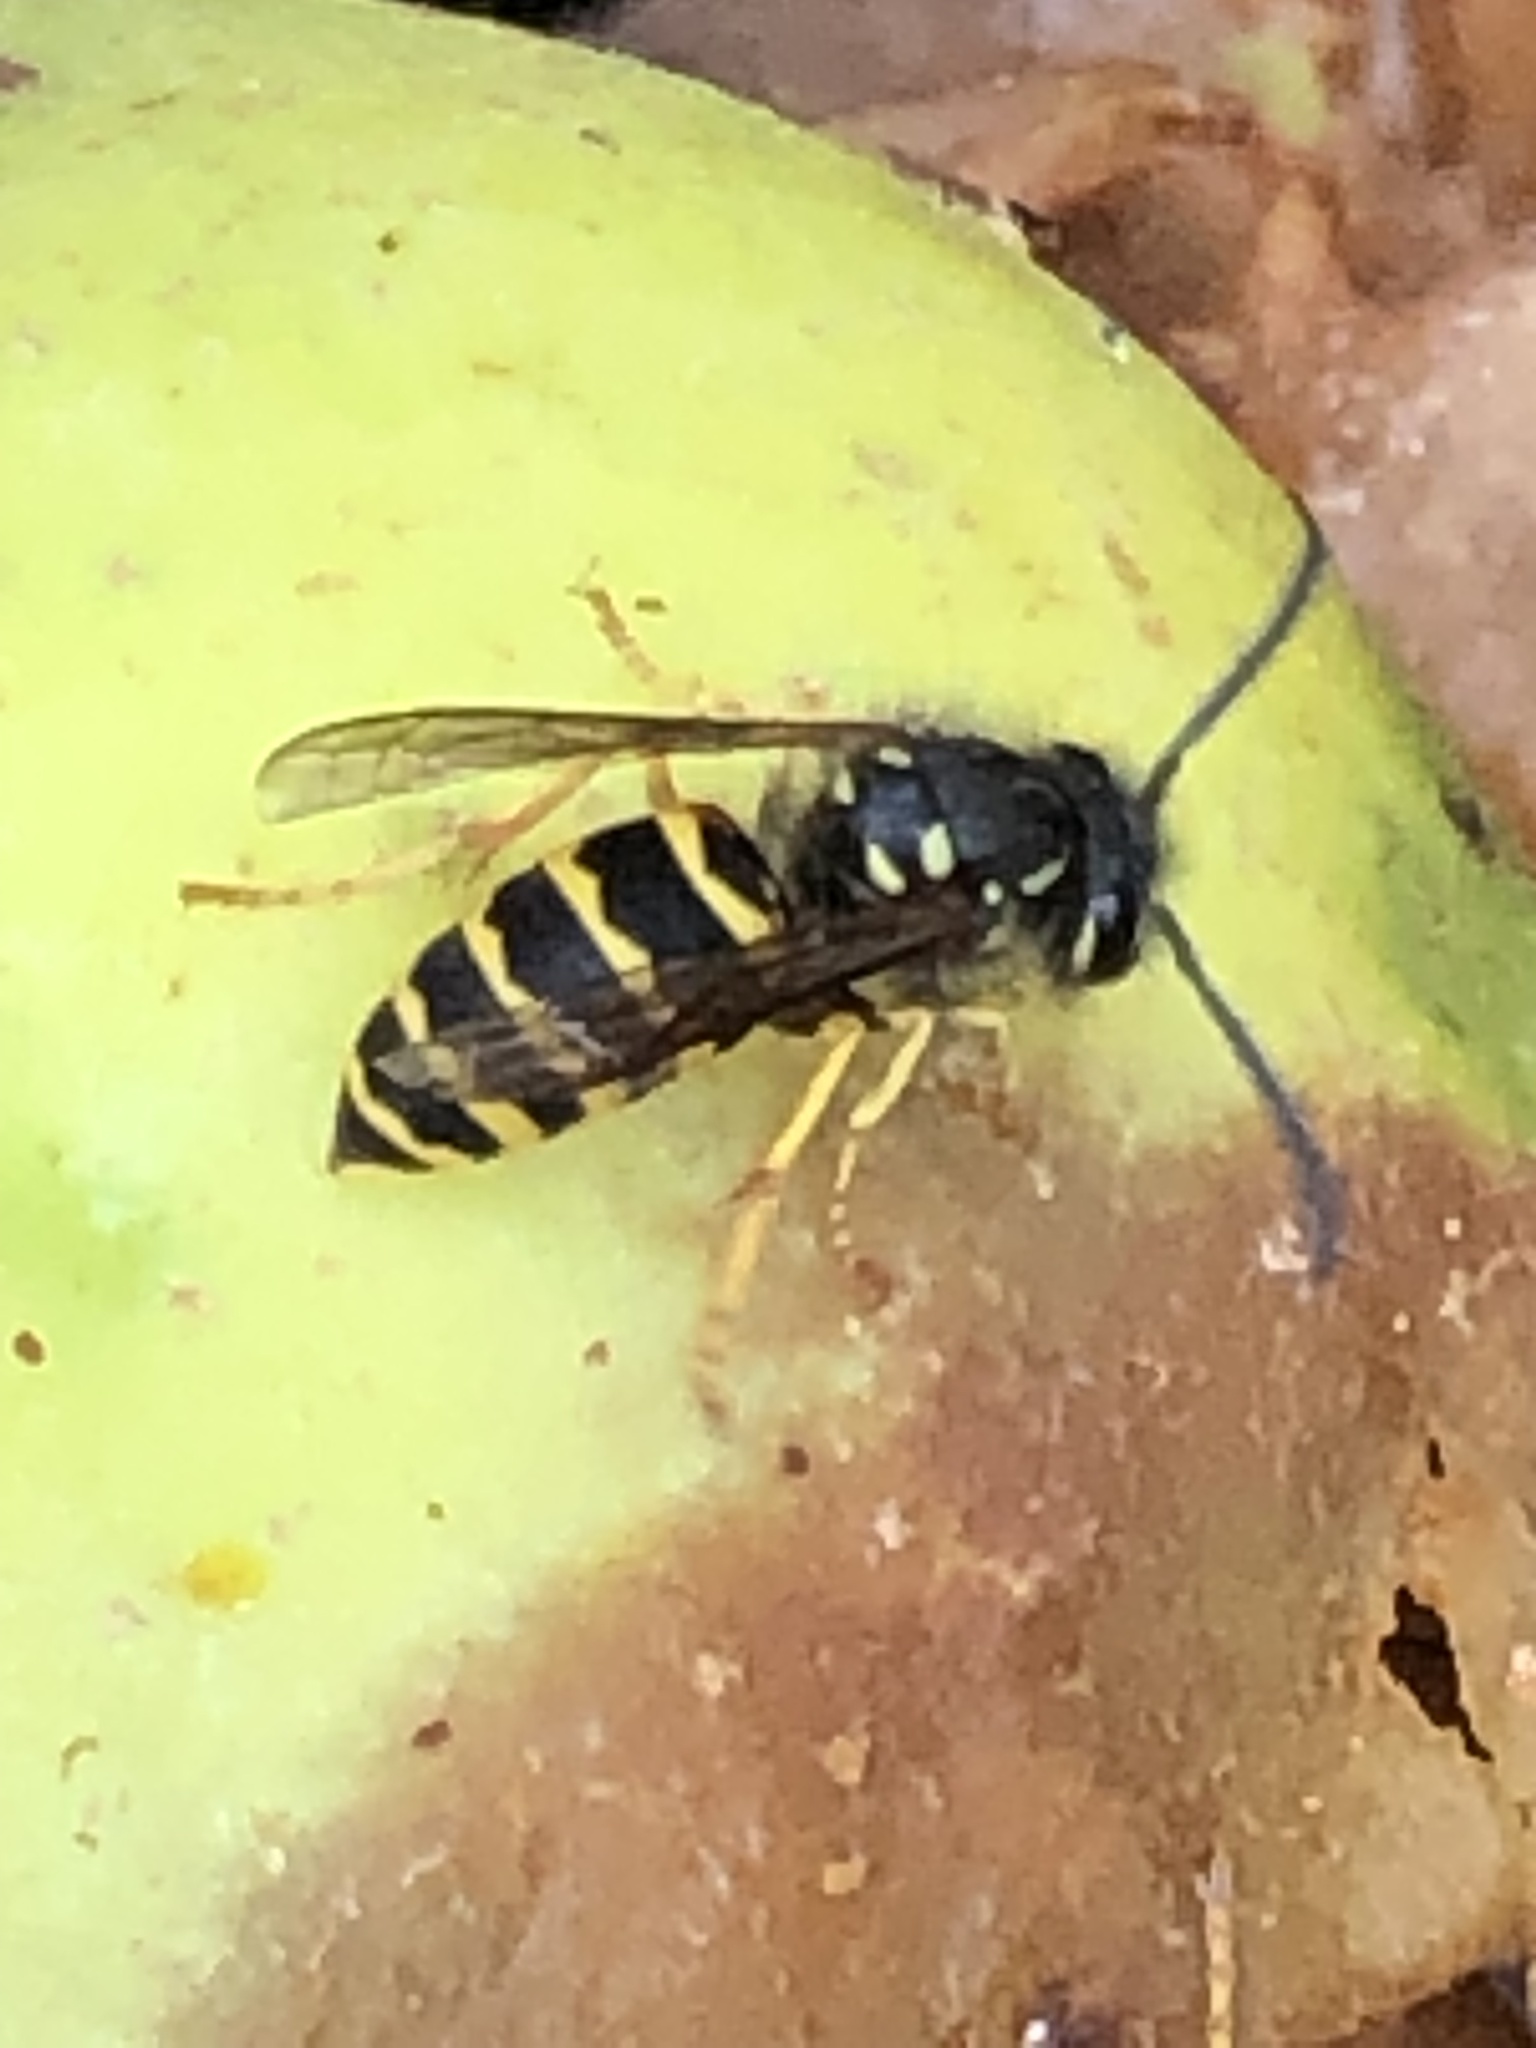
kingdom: Animalia
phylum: Arthropoda
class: Insecta
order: Hymenoptera
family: Vespidae
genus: Vespula
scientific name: Vespula alascensis
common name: Alaska yellowjacket
